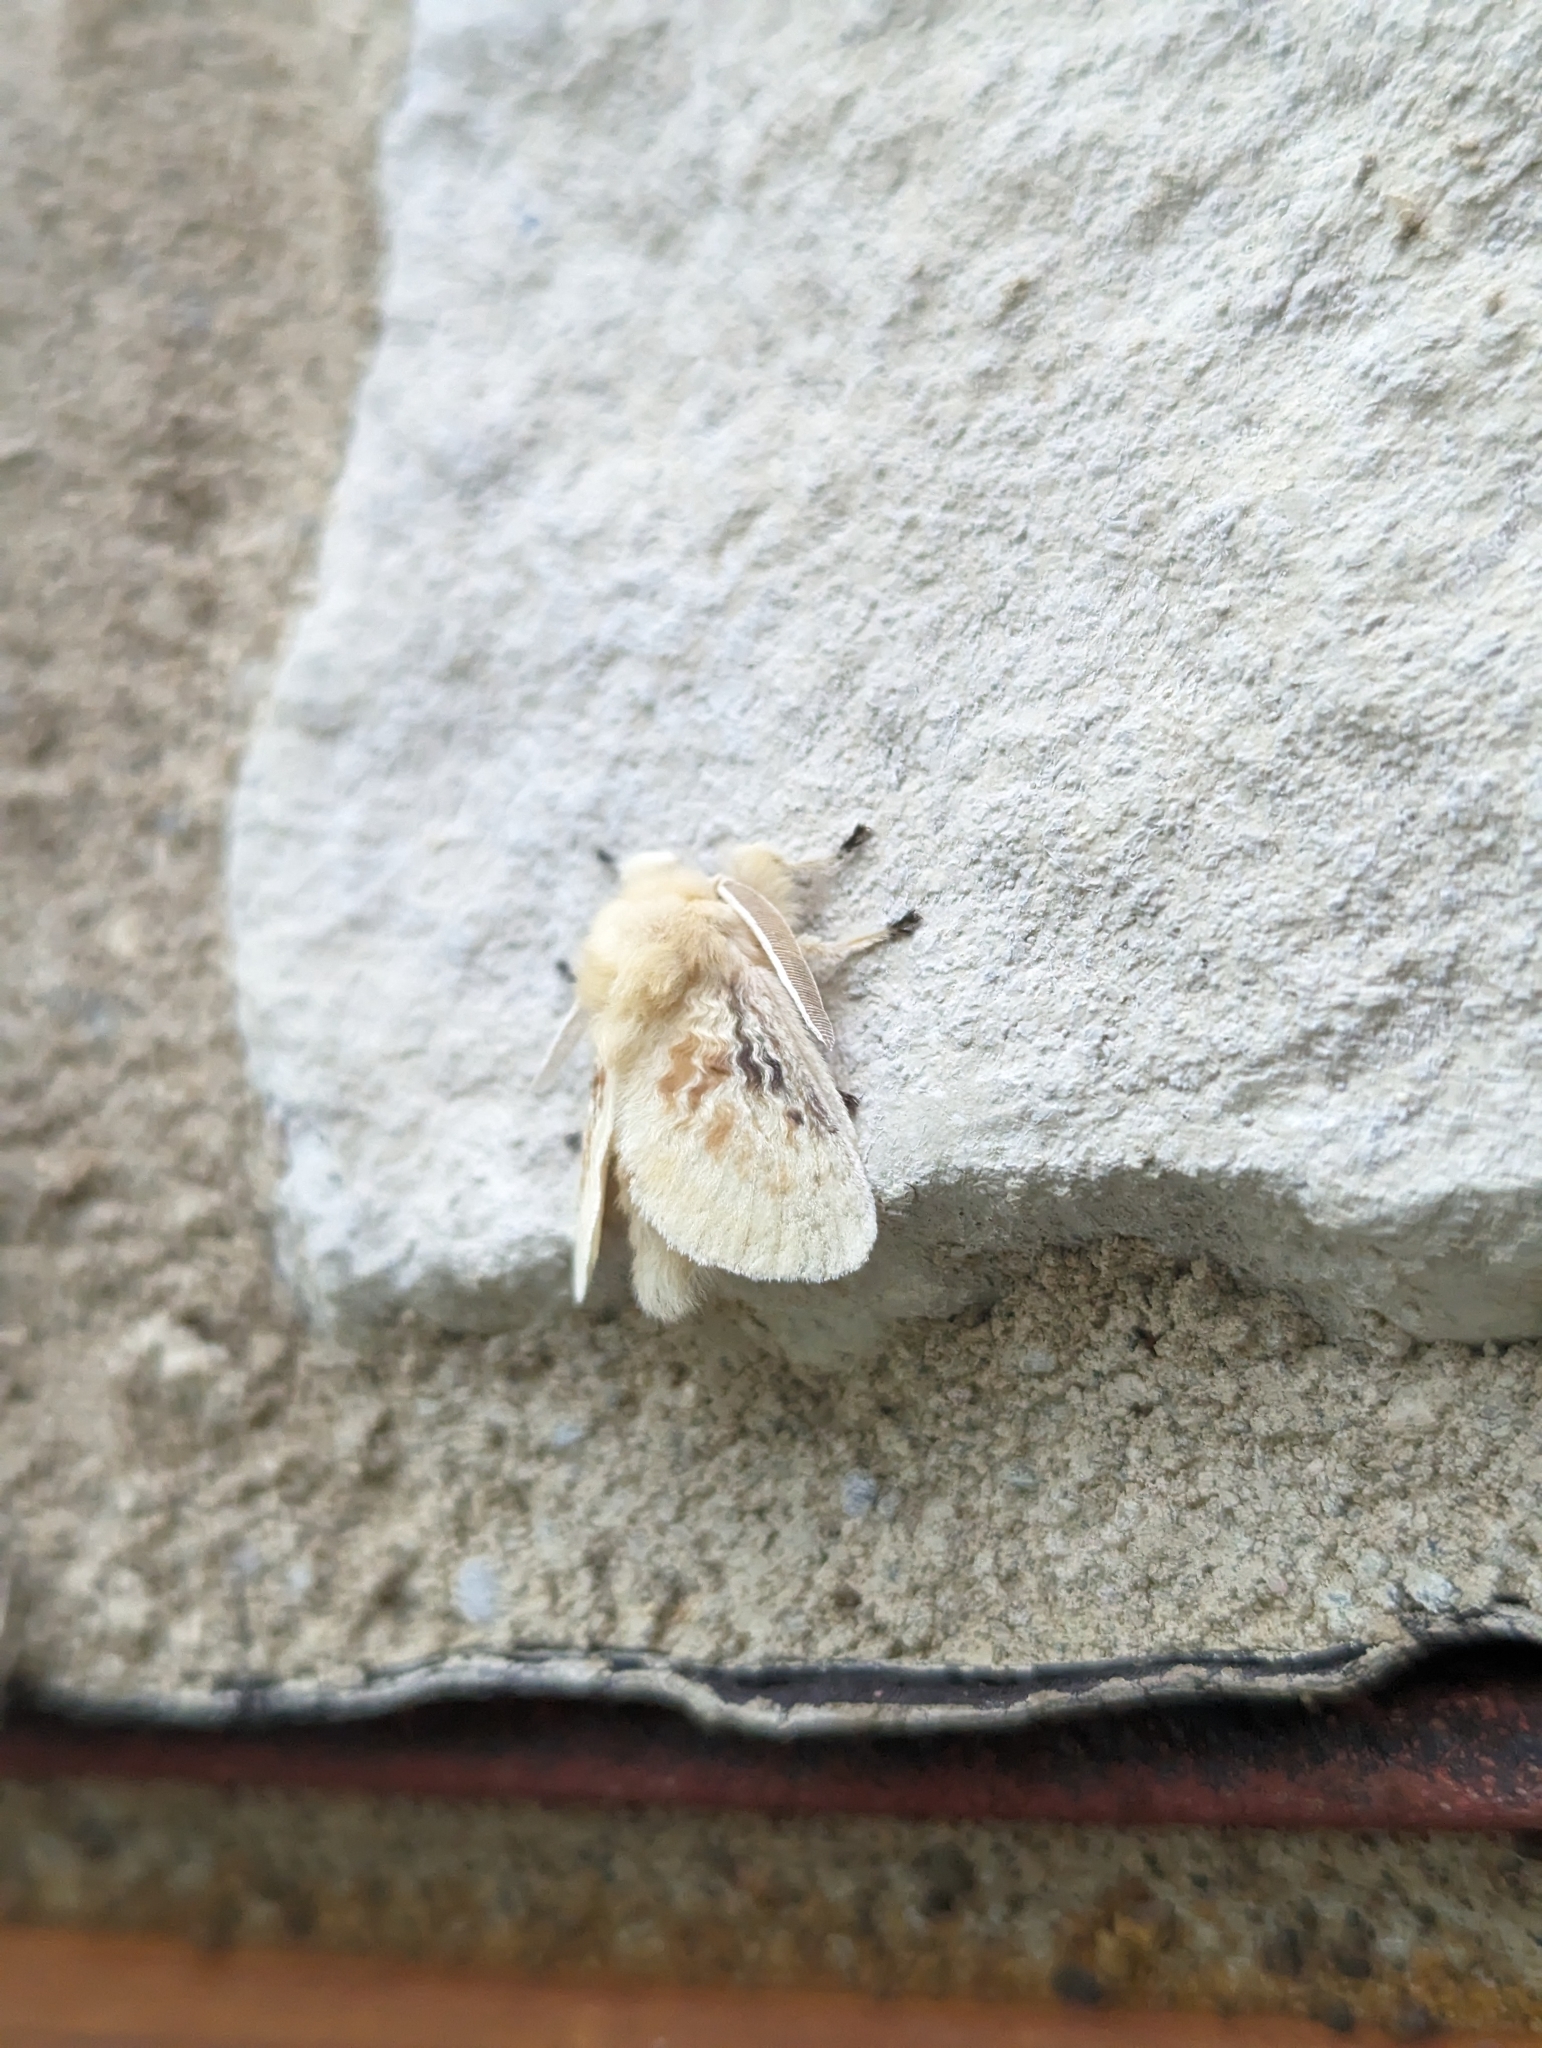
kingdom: Animalia
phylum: Arthropoda
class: Insecta
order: Lepidoptera
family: Megalopygidae
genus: Megalopyge
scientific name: Megalopyge crispata
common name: Black-waved flannel moth
